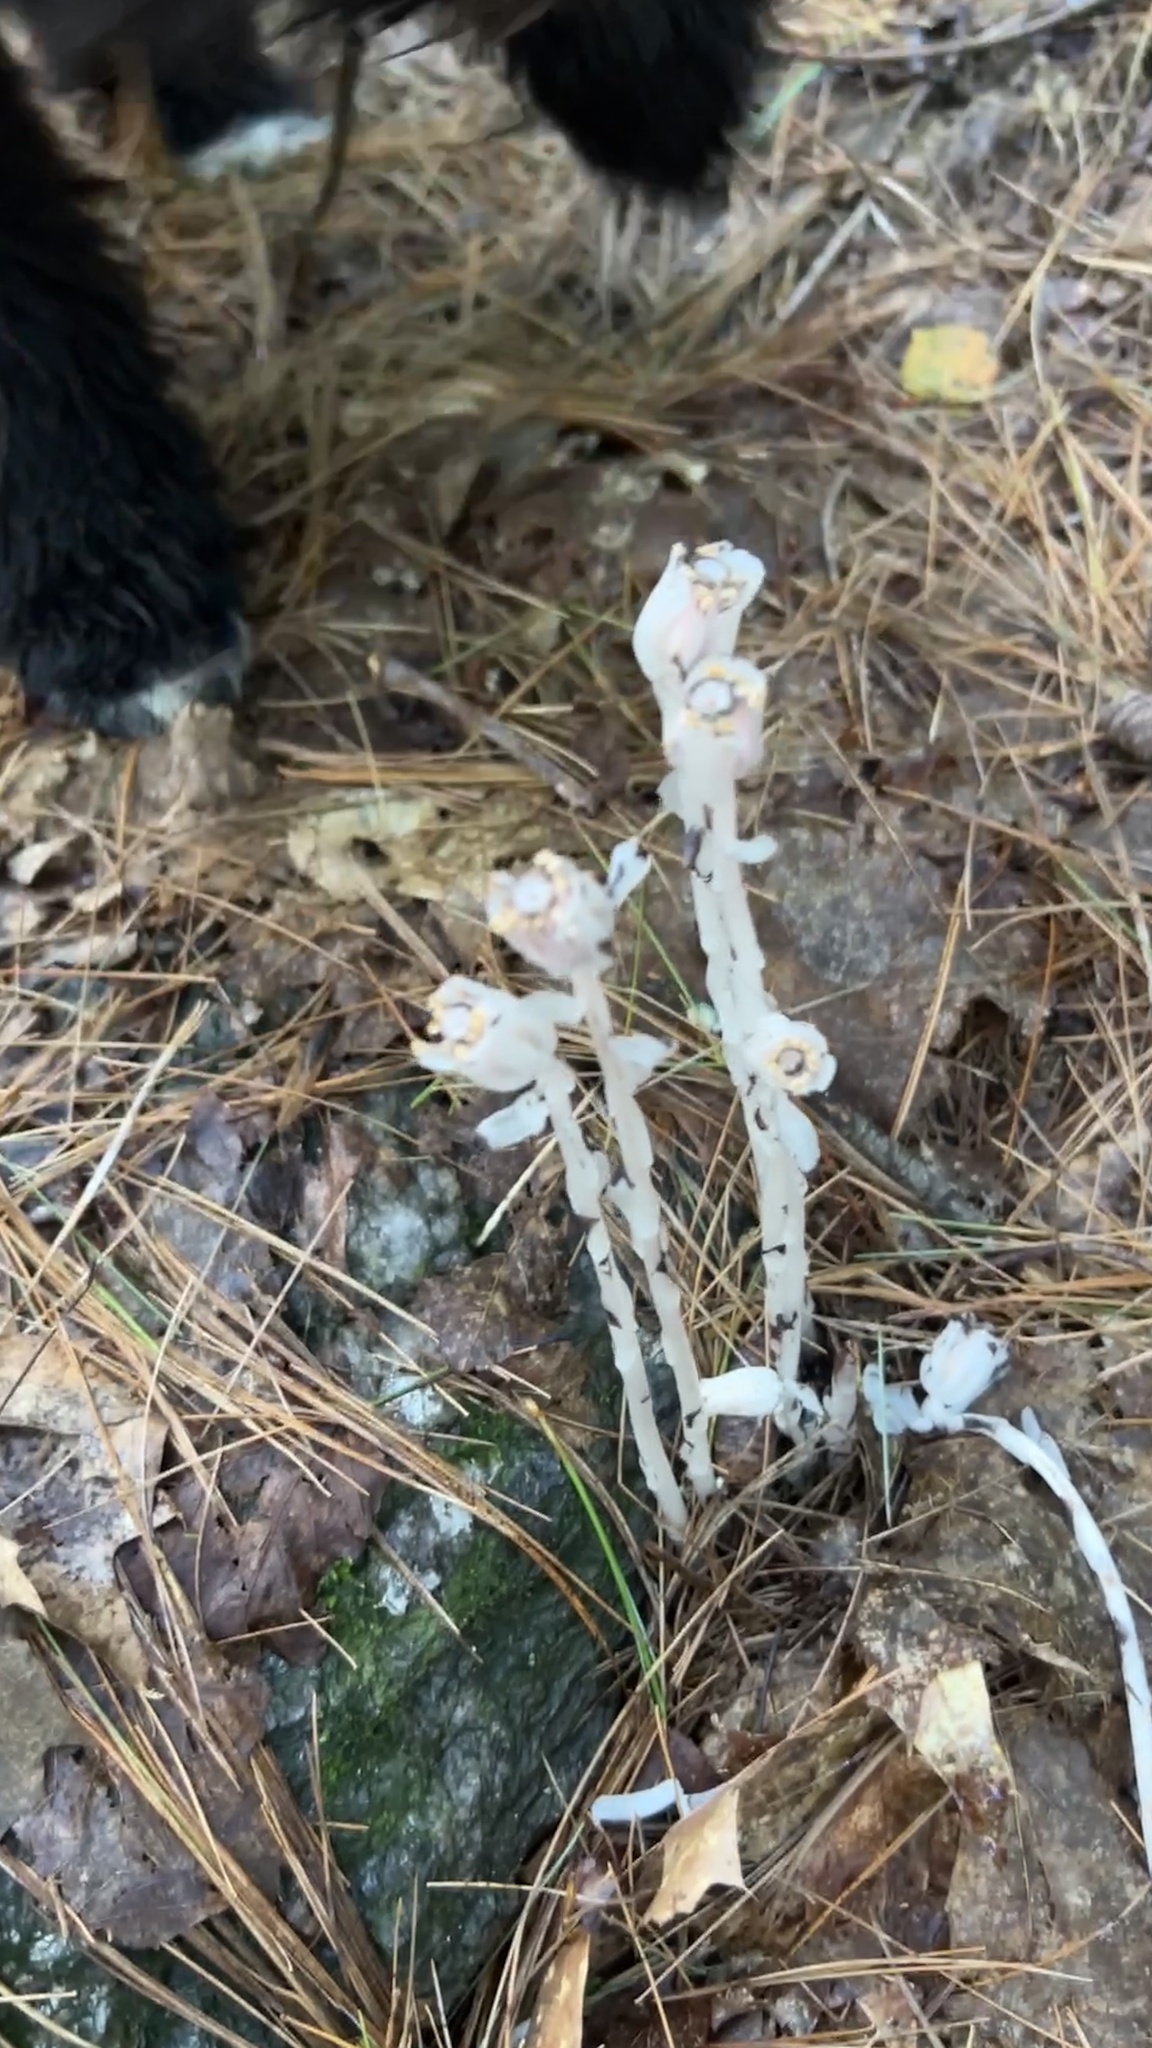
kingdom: Plantae
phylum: Tracheophyta
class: Magnoliopsida
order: Ericales
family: Ericaceae
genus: Monotropa
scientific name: Monotropa uniflora
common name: Convulsion root
